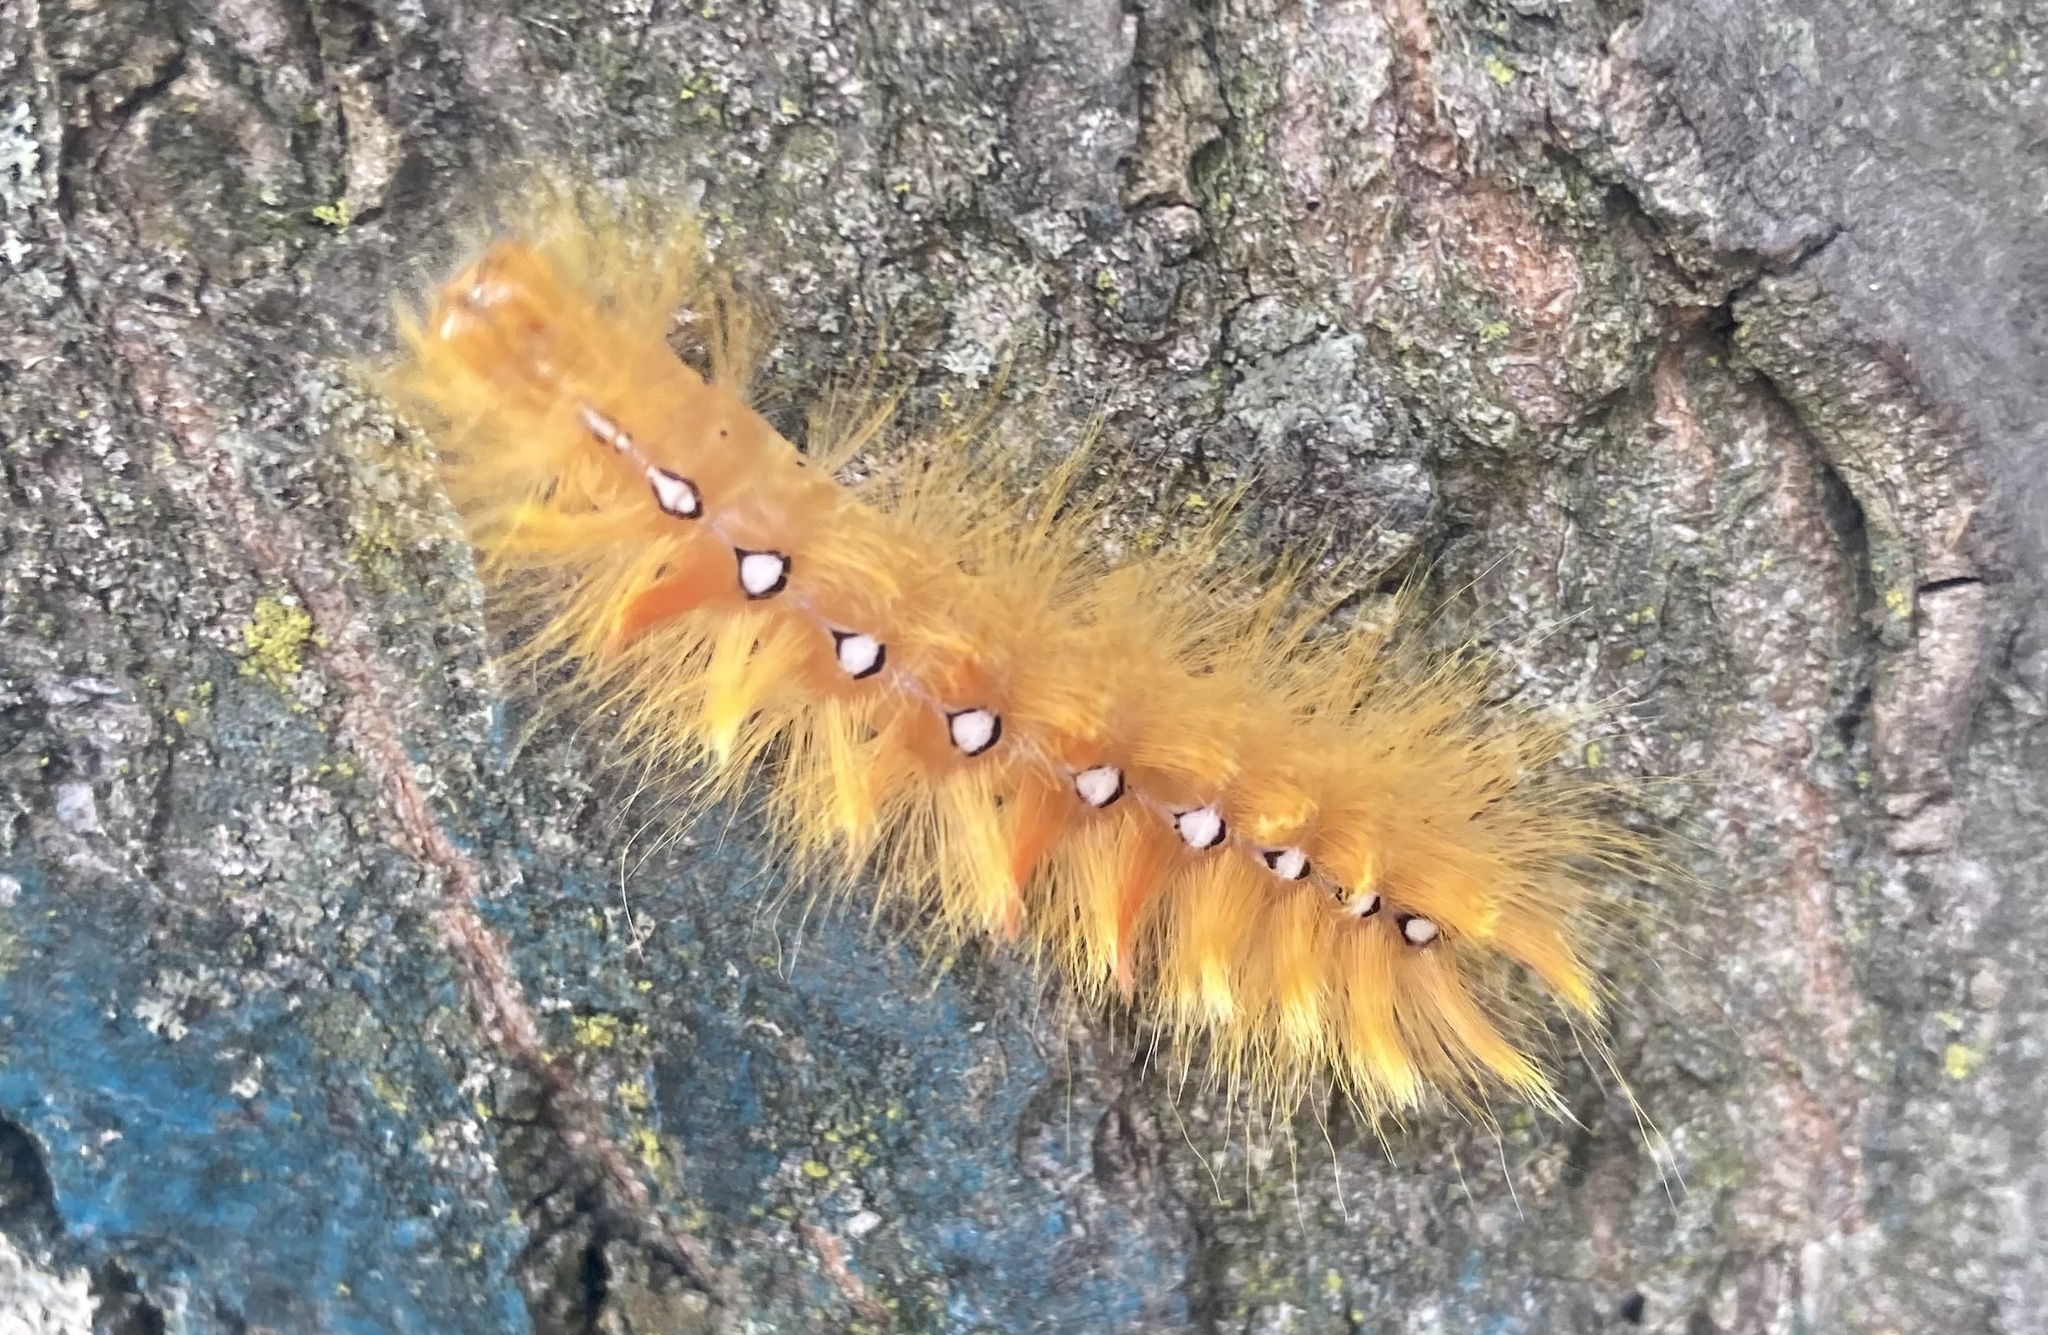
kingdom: Animalia
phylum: Arthropoda
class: Insecta
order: Lepidoptera
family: Noctuidae
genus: Acronicta
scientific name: Acronicta aceris
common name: Sycamore
